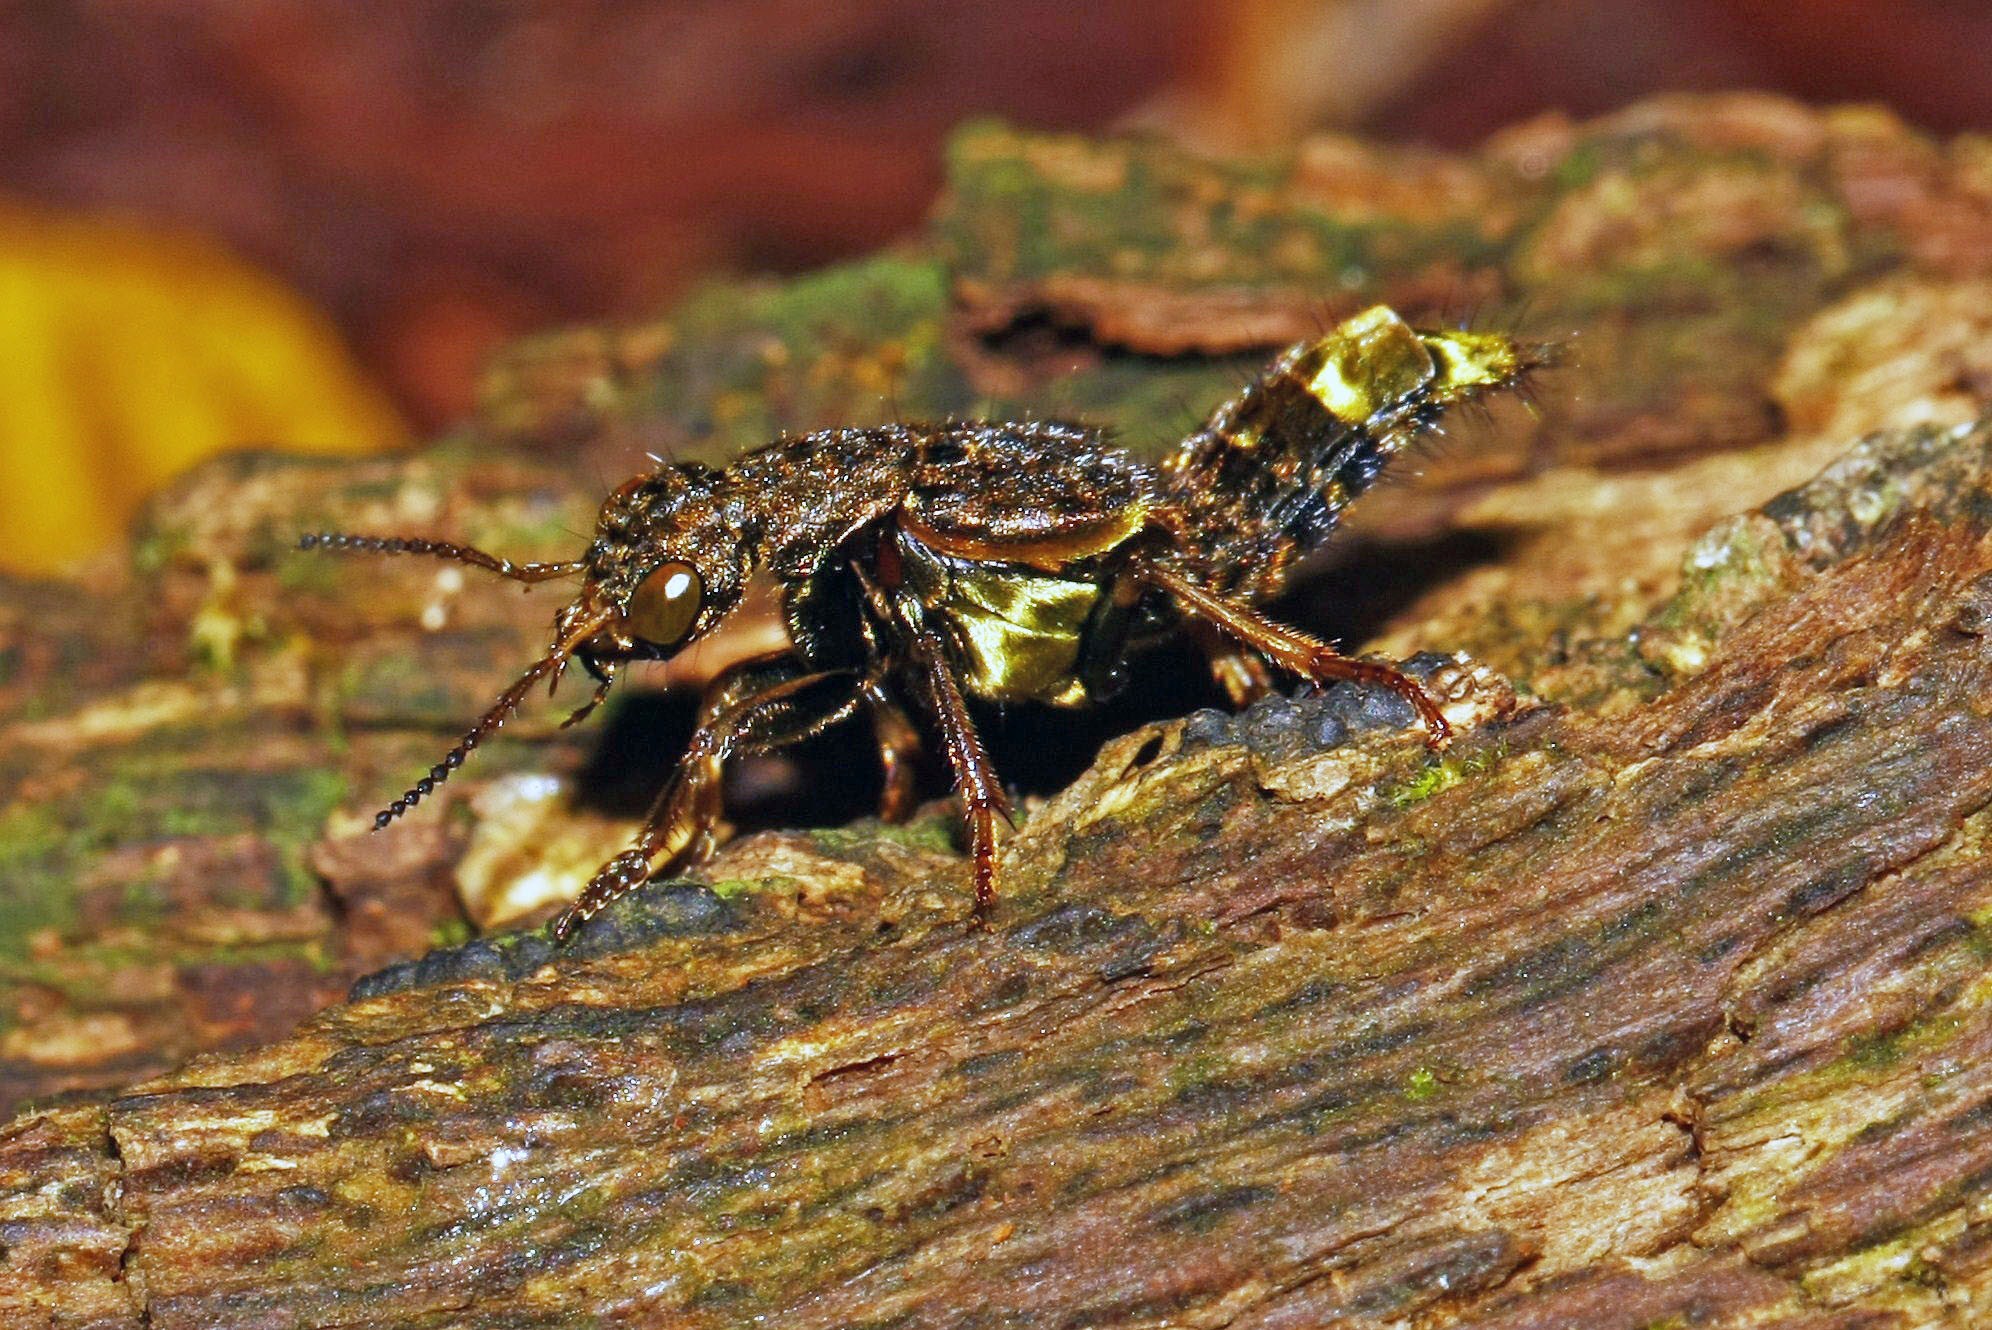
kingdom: Animalia
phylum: Arthropoda
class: Insecta
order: Coleoptera
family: Staphylinidae
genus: Ontholestes
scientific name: Ontholestes cingulatus
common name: Gold-and-brown rove beetle
